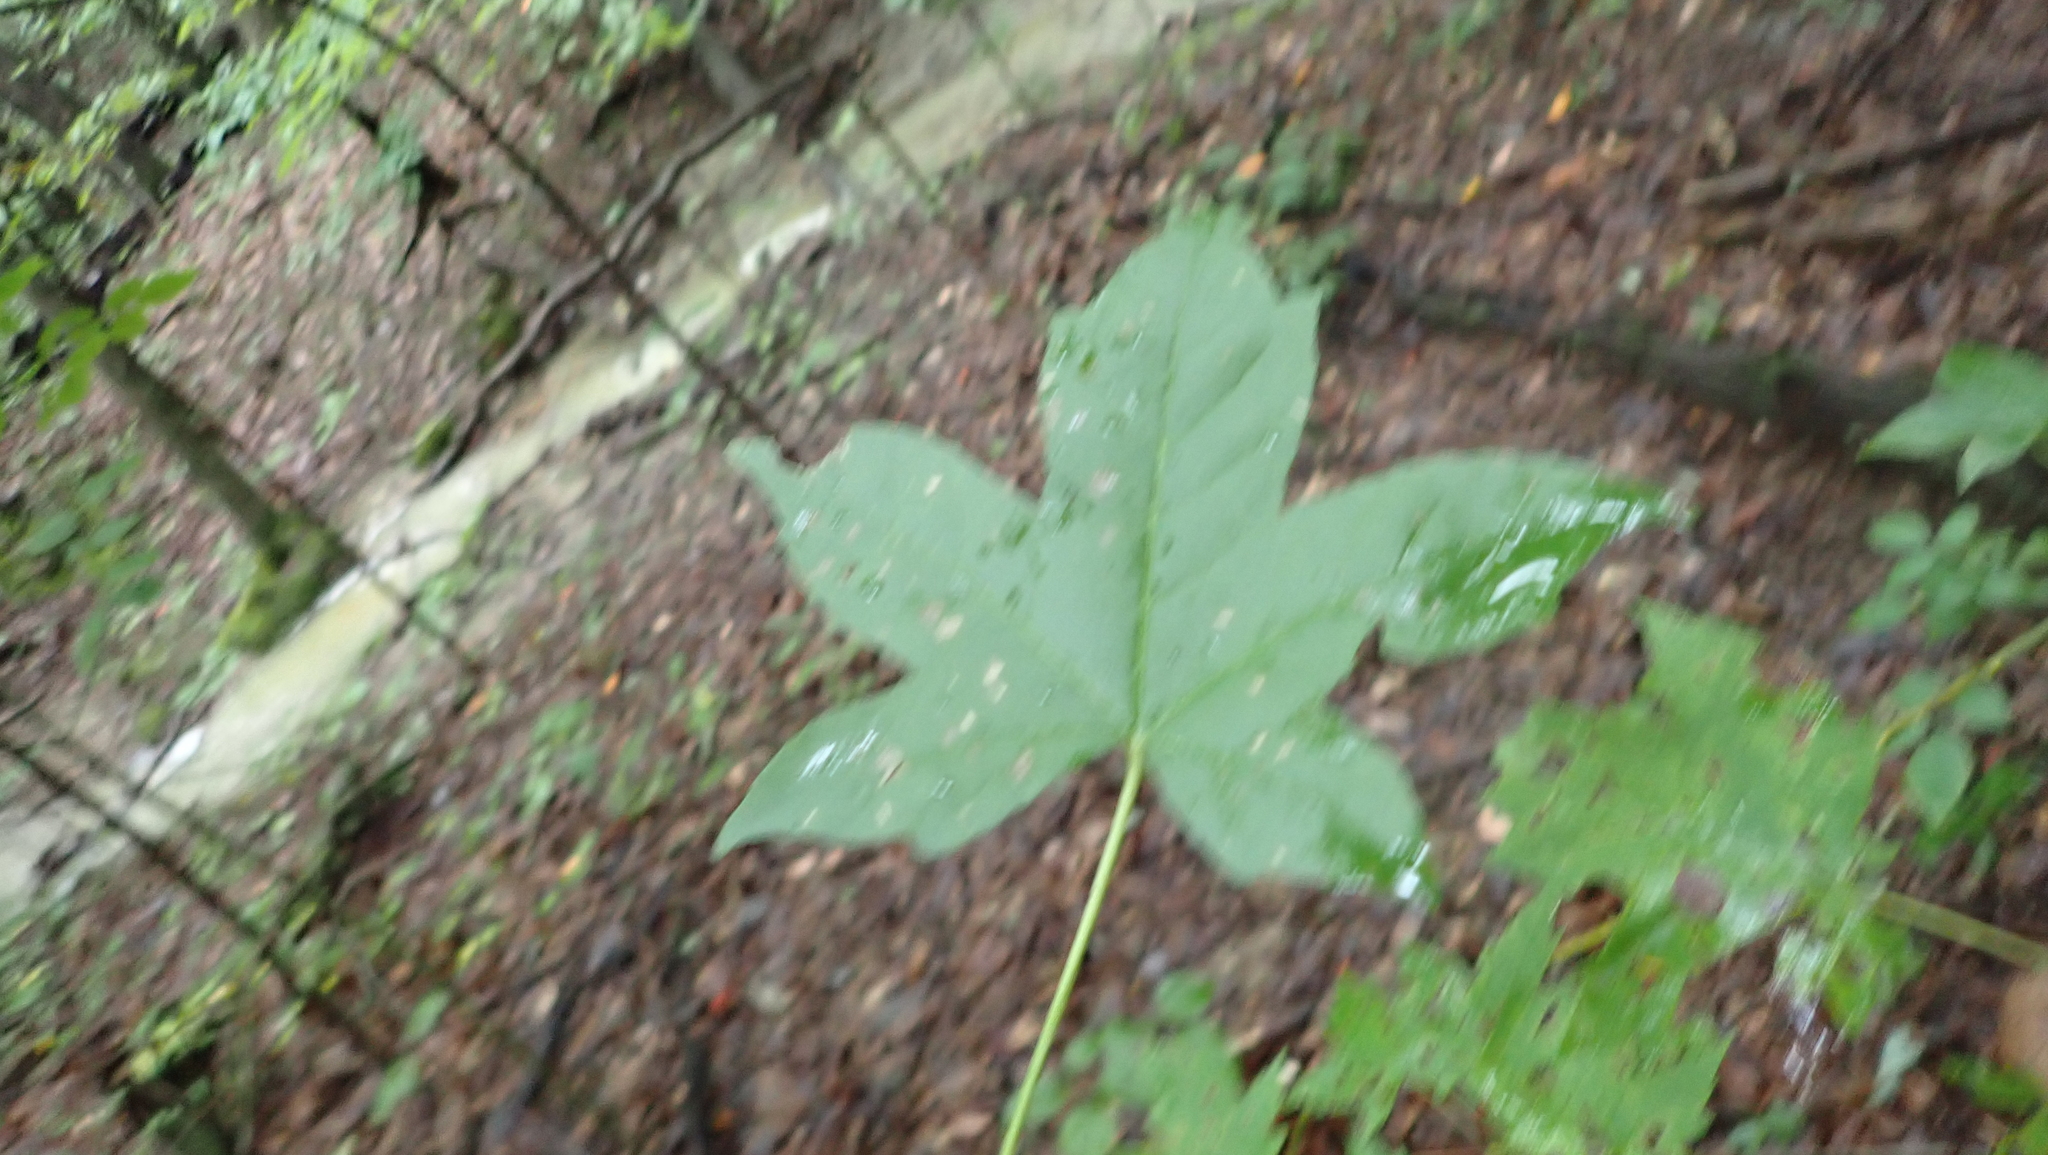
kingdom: Plantae
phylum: Tracheophyta
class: Magnoliopsida
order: Saxifragales
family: Altingiaceae
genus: Liquidambar
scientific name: Liquidambar styraciflua
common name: Sweet gum
